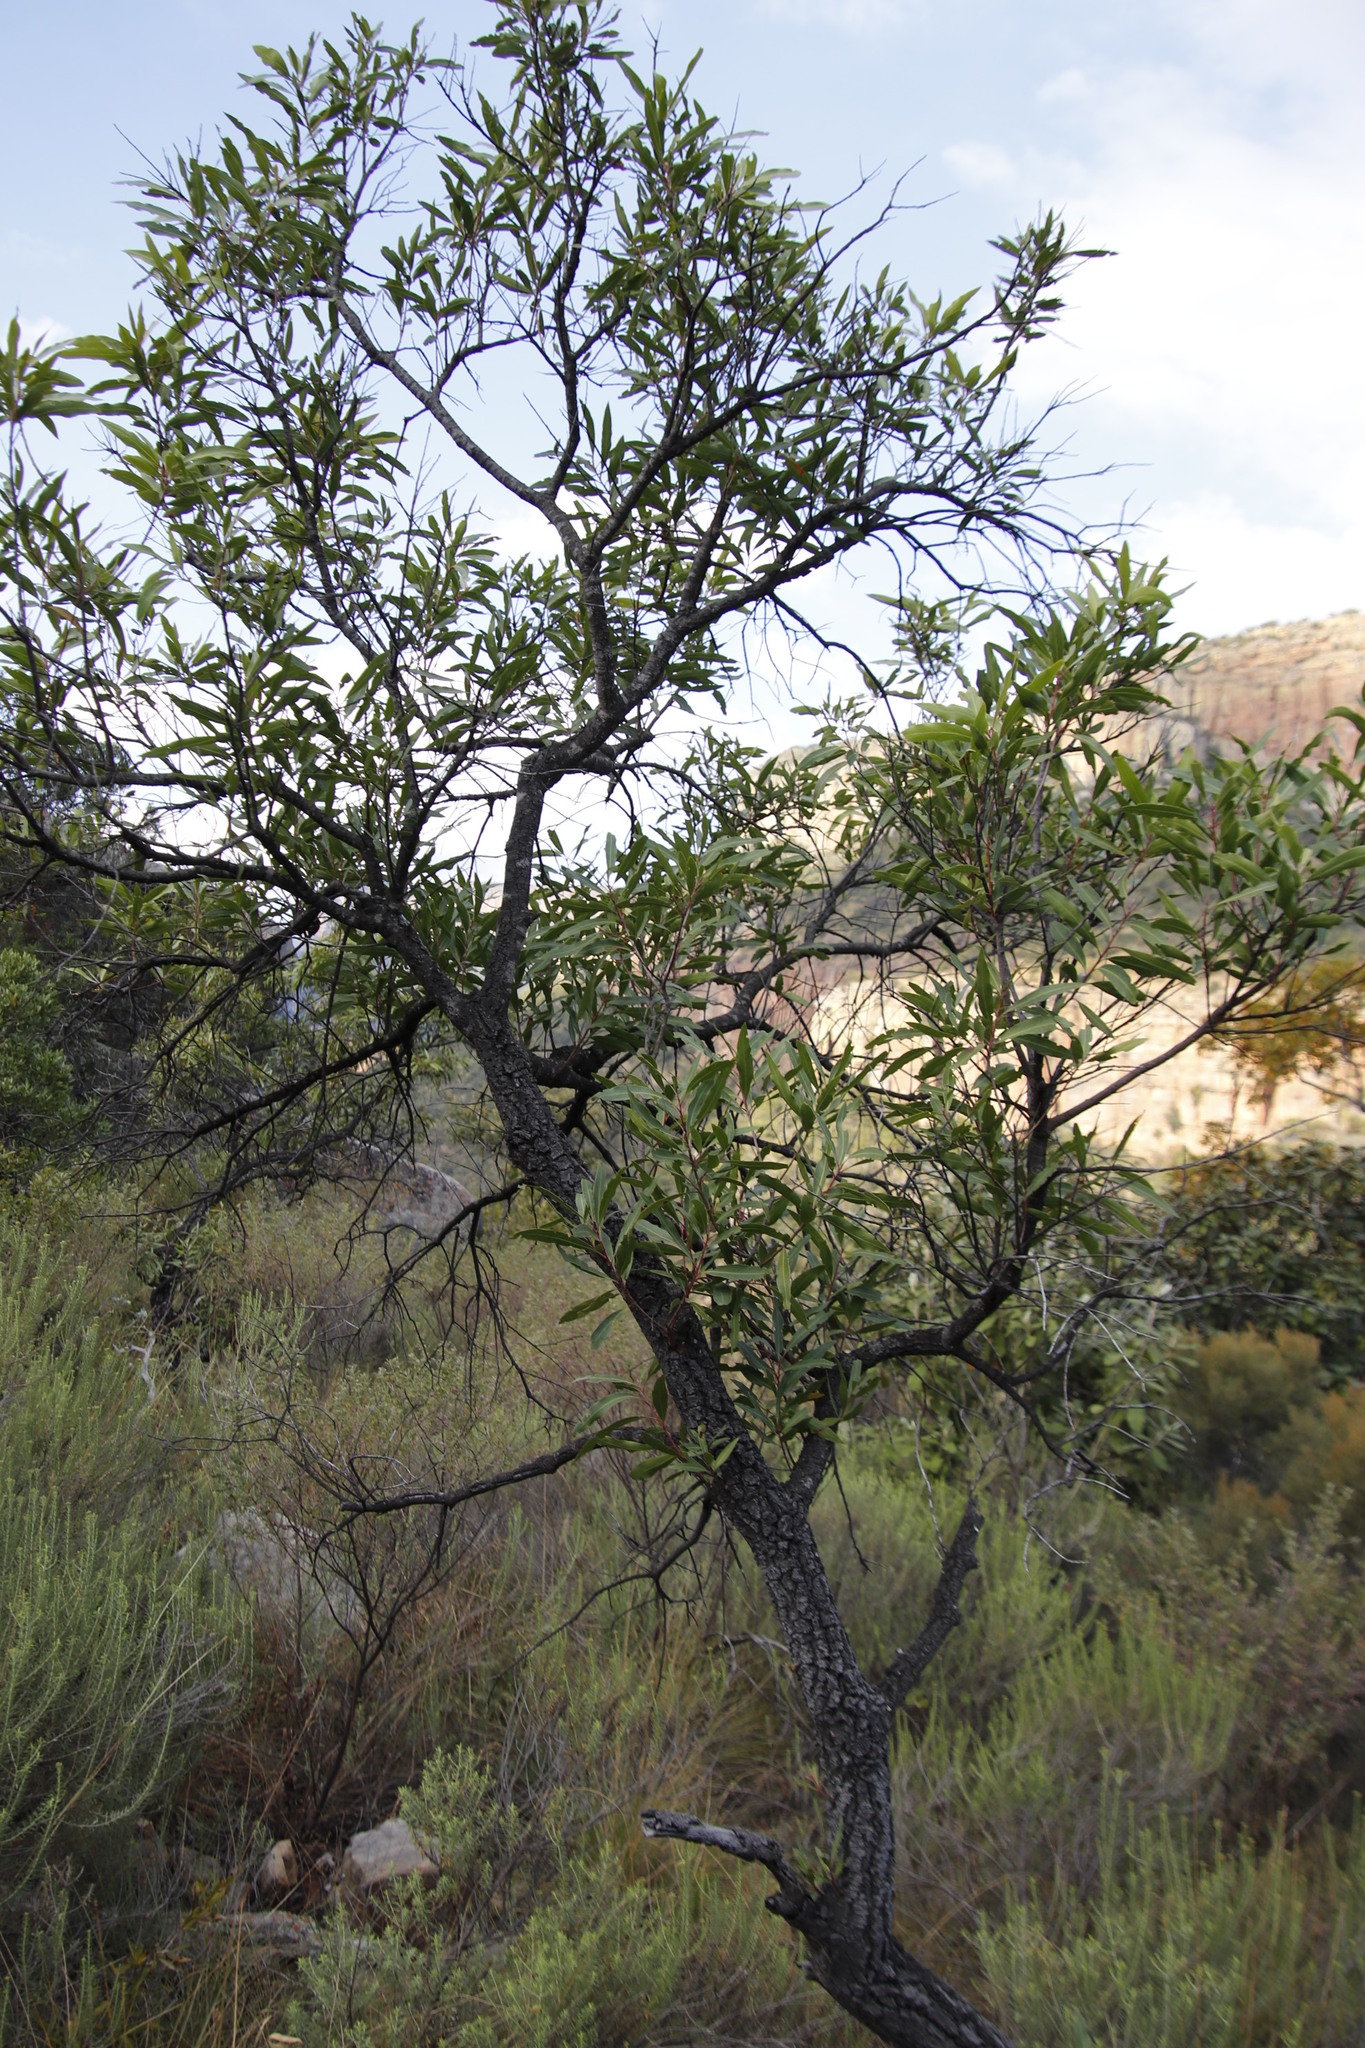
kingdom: Plantae
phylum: Tracheophyta
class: Magnoliopsida
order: Proteales
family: Proteaceae
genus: Faurea
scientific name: Faurea saligna
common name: African bean
